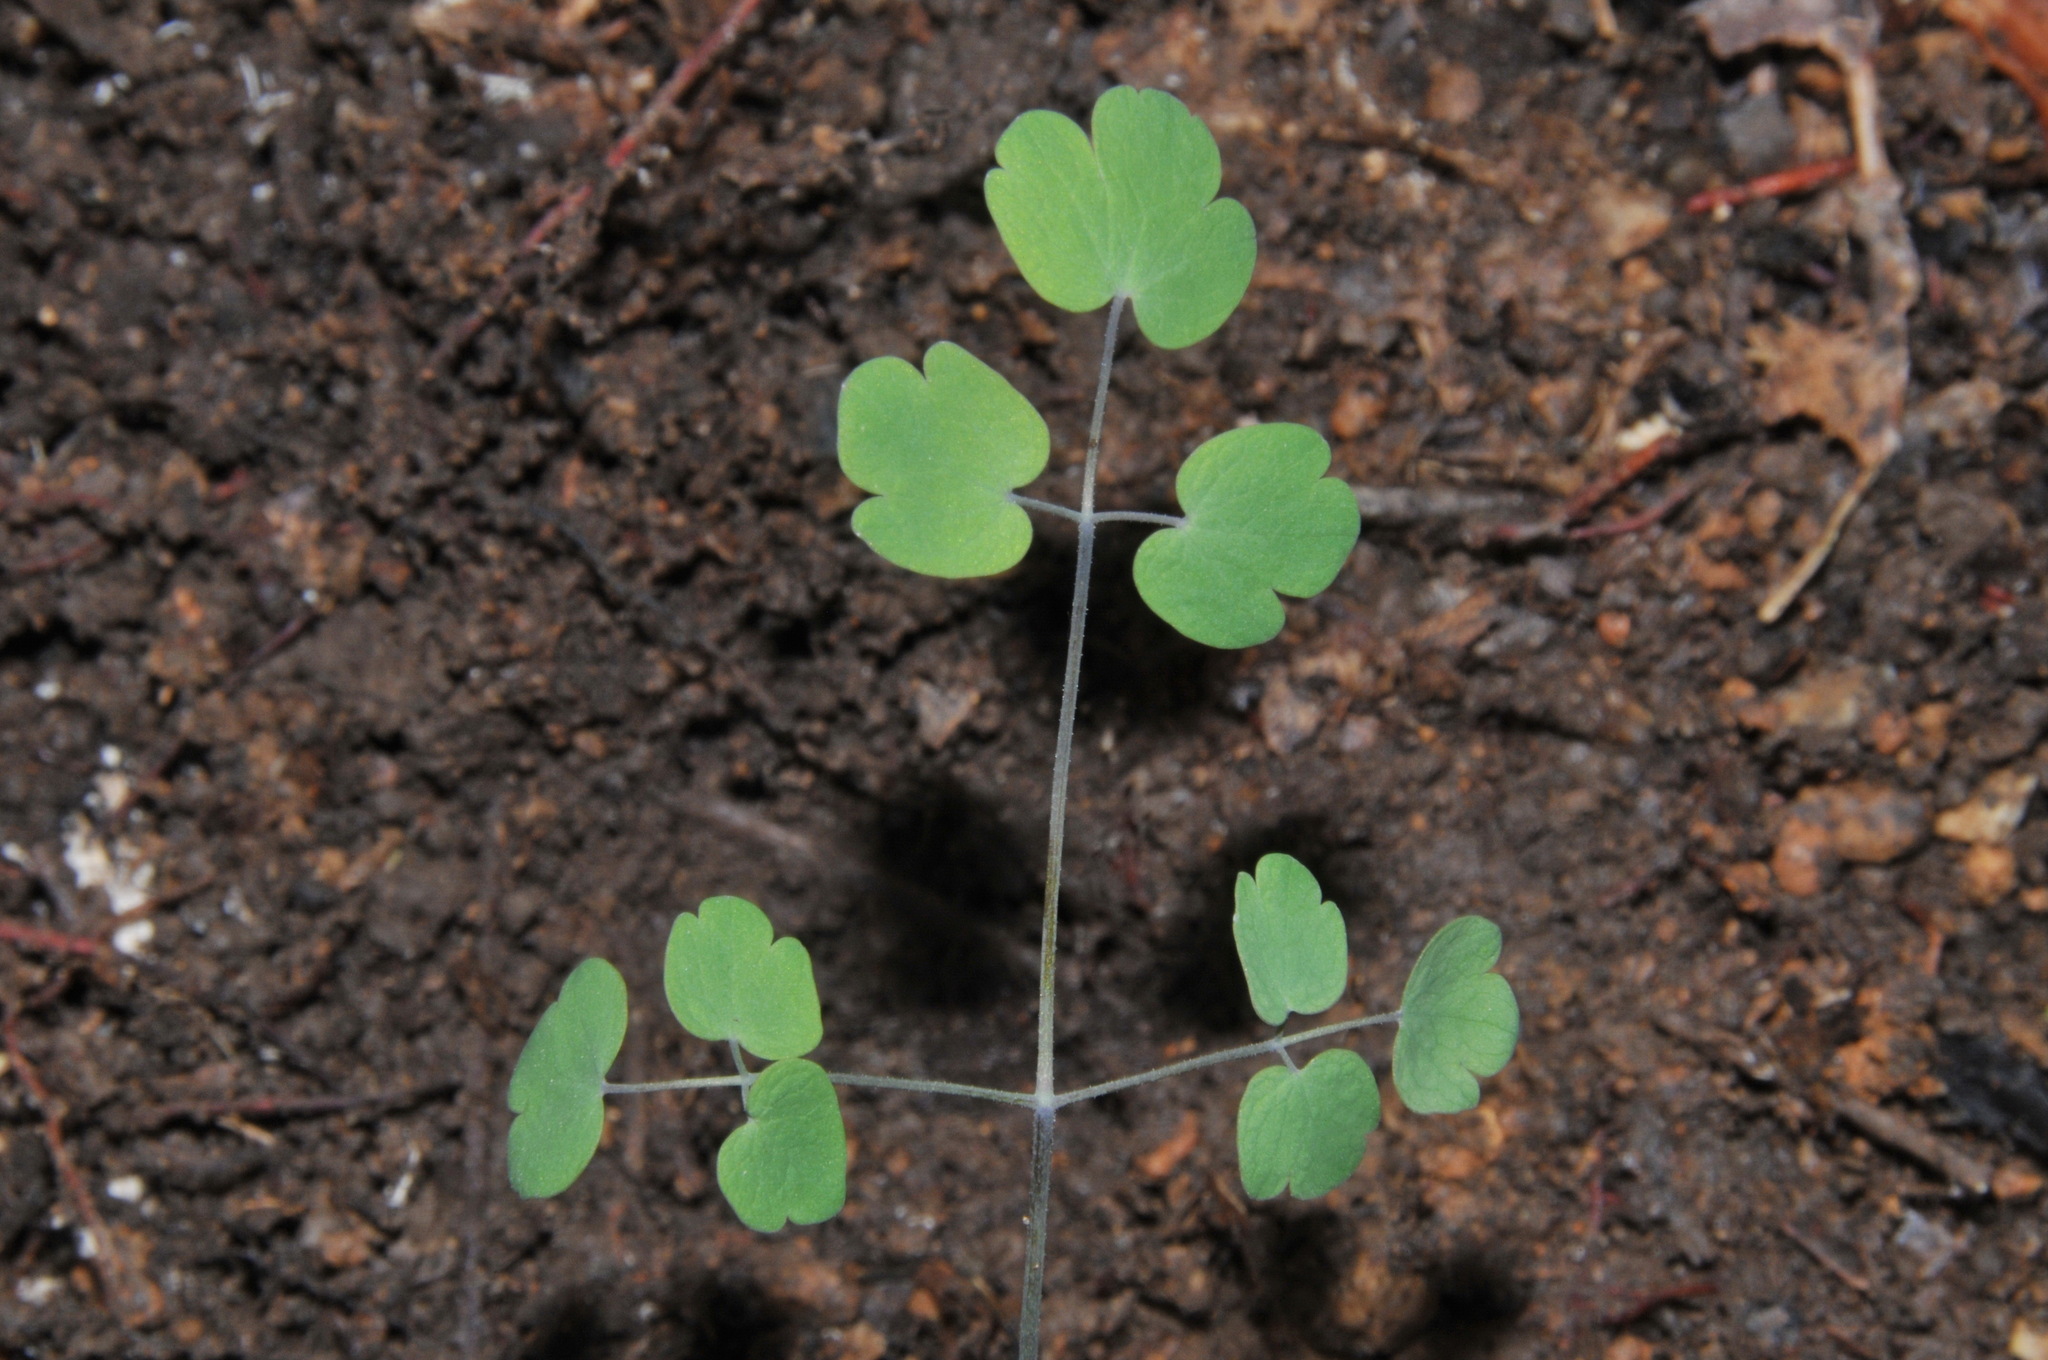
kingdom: Plantae
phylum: Tracheophyta
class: Magnoliopsida
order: Ranunculales
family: Ranunculaceae
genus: Thalictrum
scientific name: Thalictrum debile
